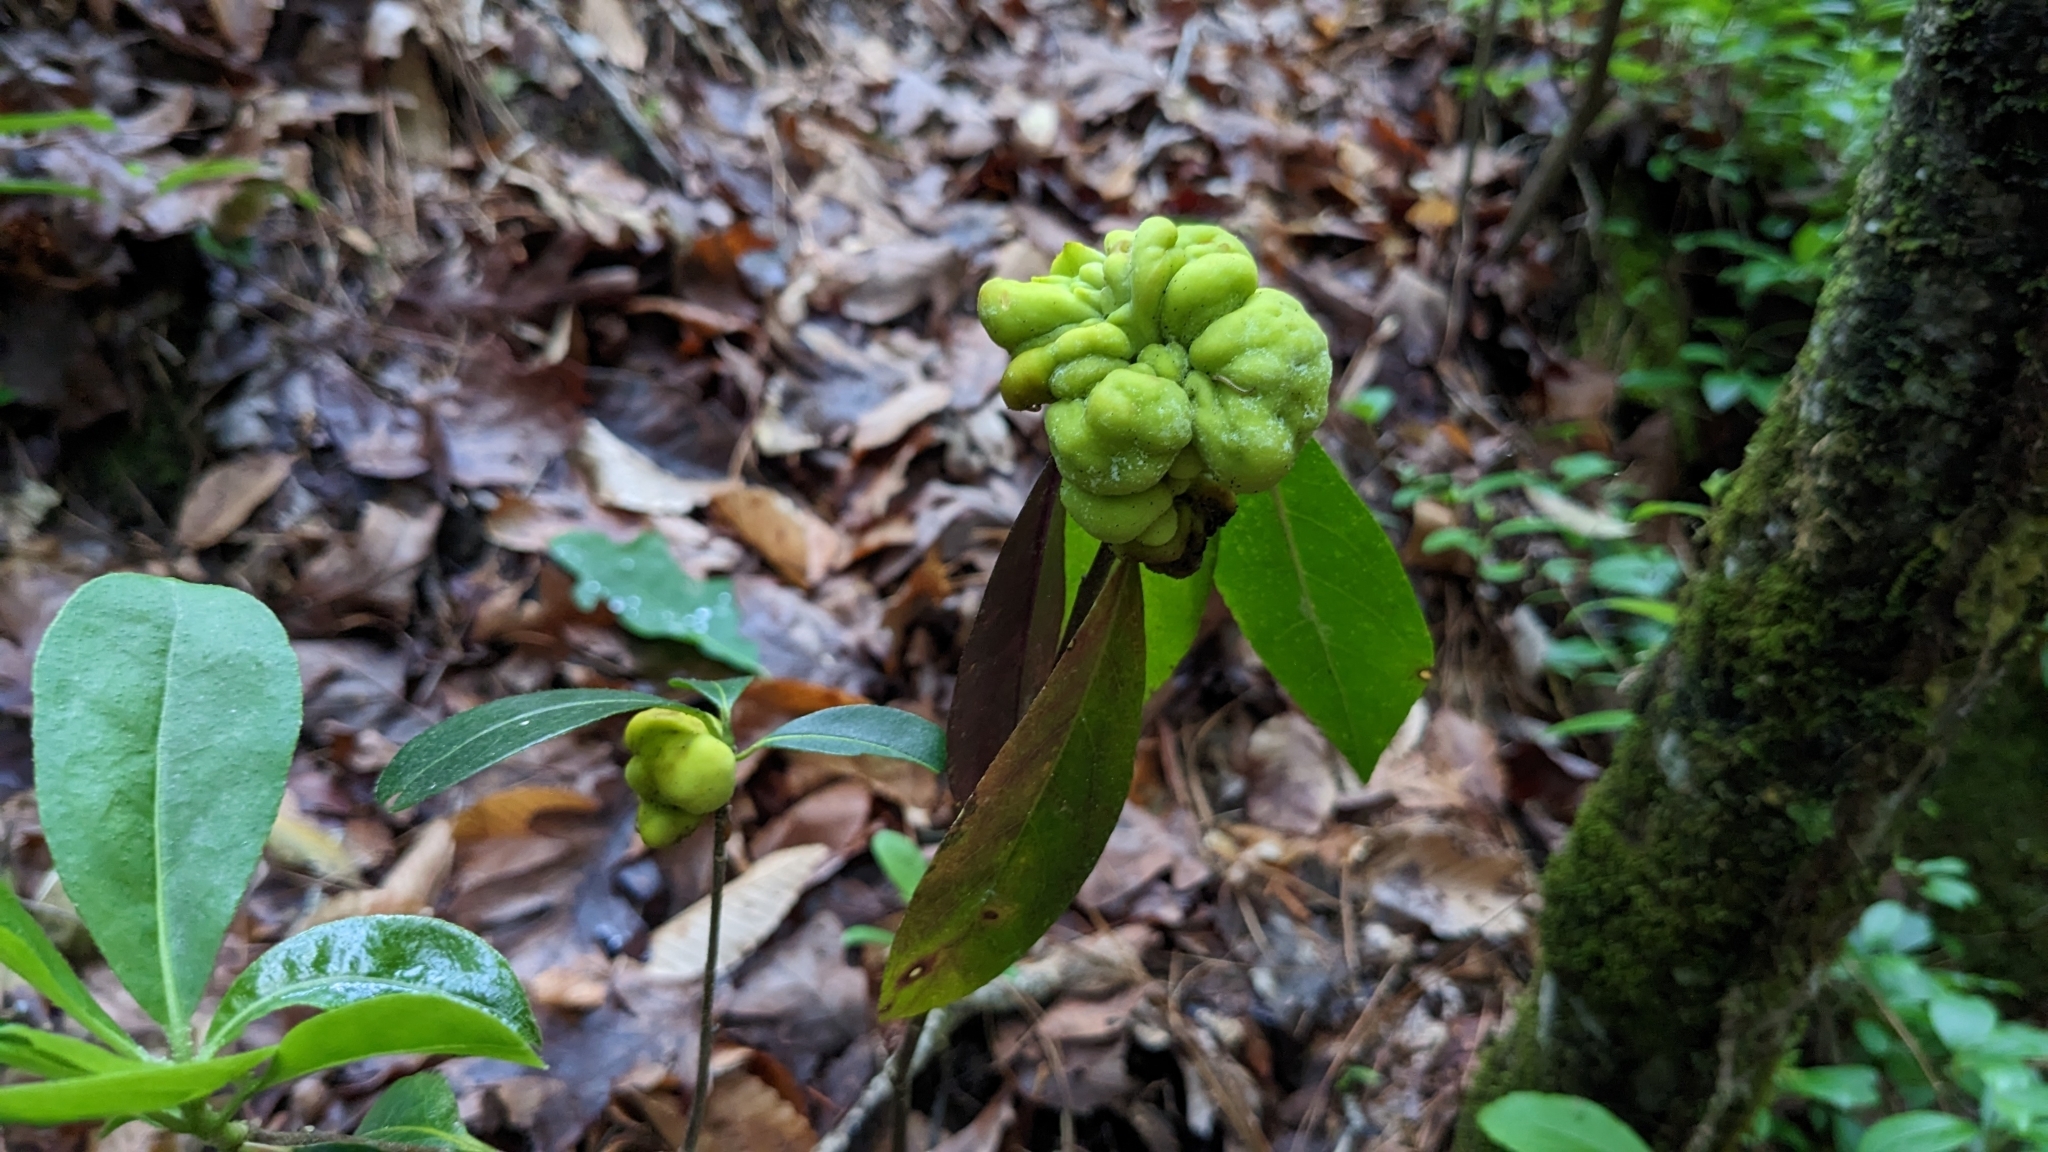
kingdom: Fungi
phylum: Basidiomycota
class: Exobasidiomycetes
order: Exobasidiales
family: Exobasidiaceae
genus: Exobasidium
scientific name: Exobasidium symploci
